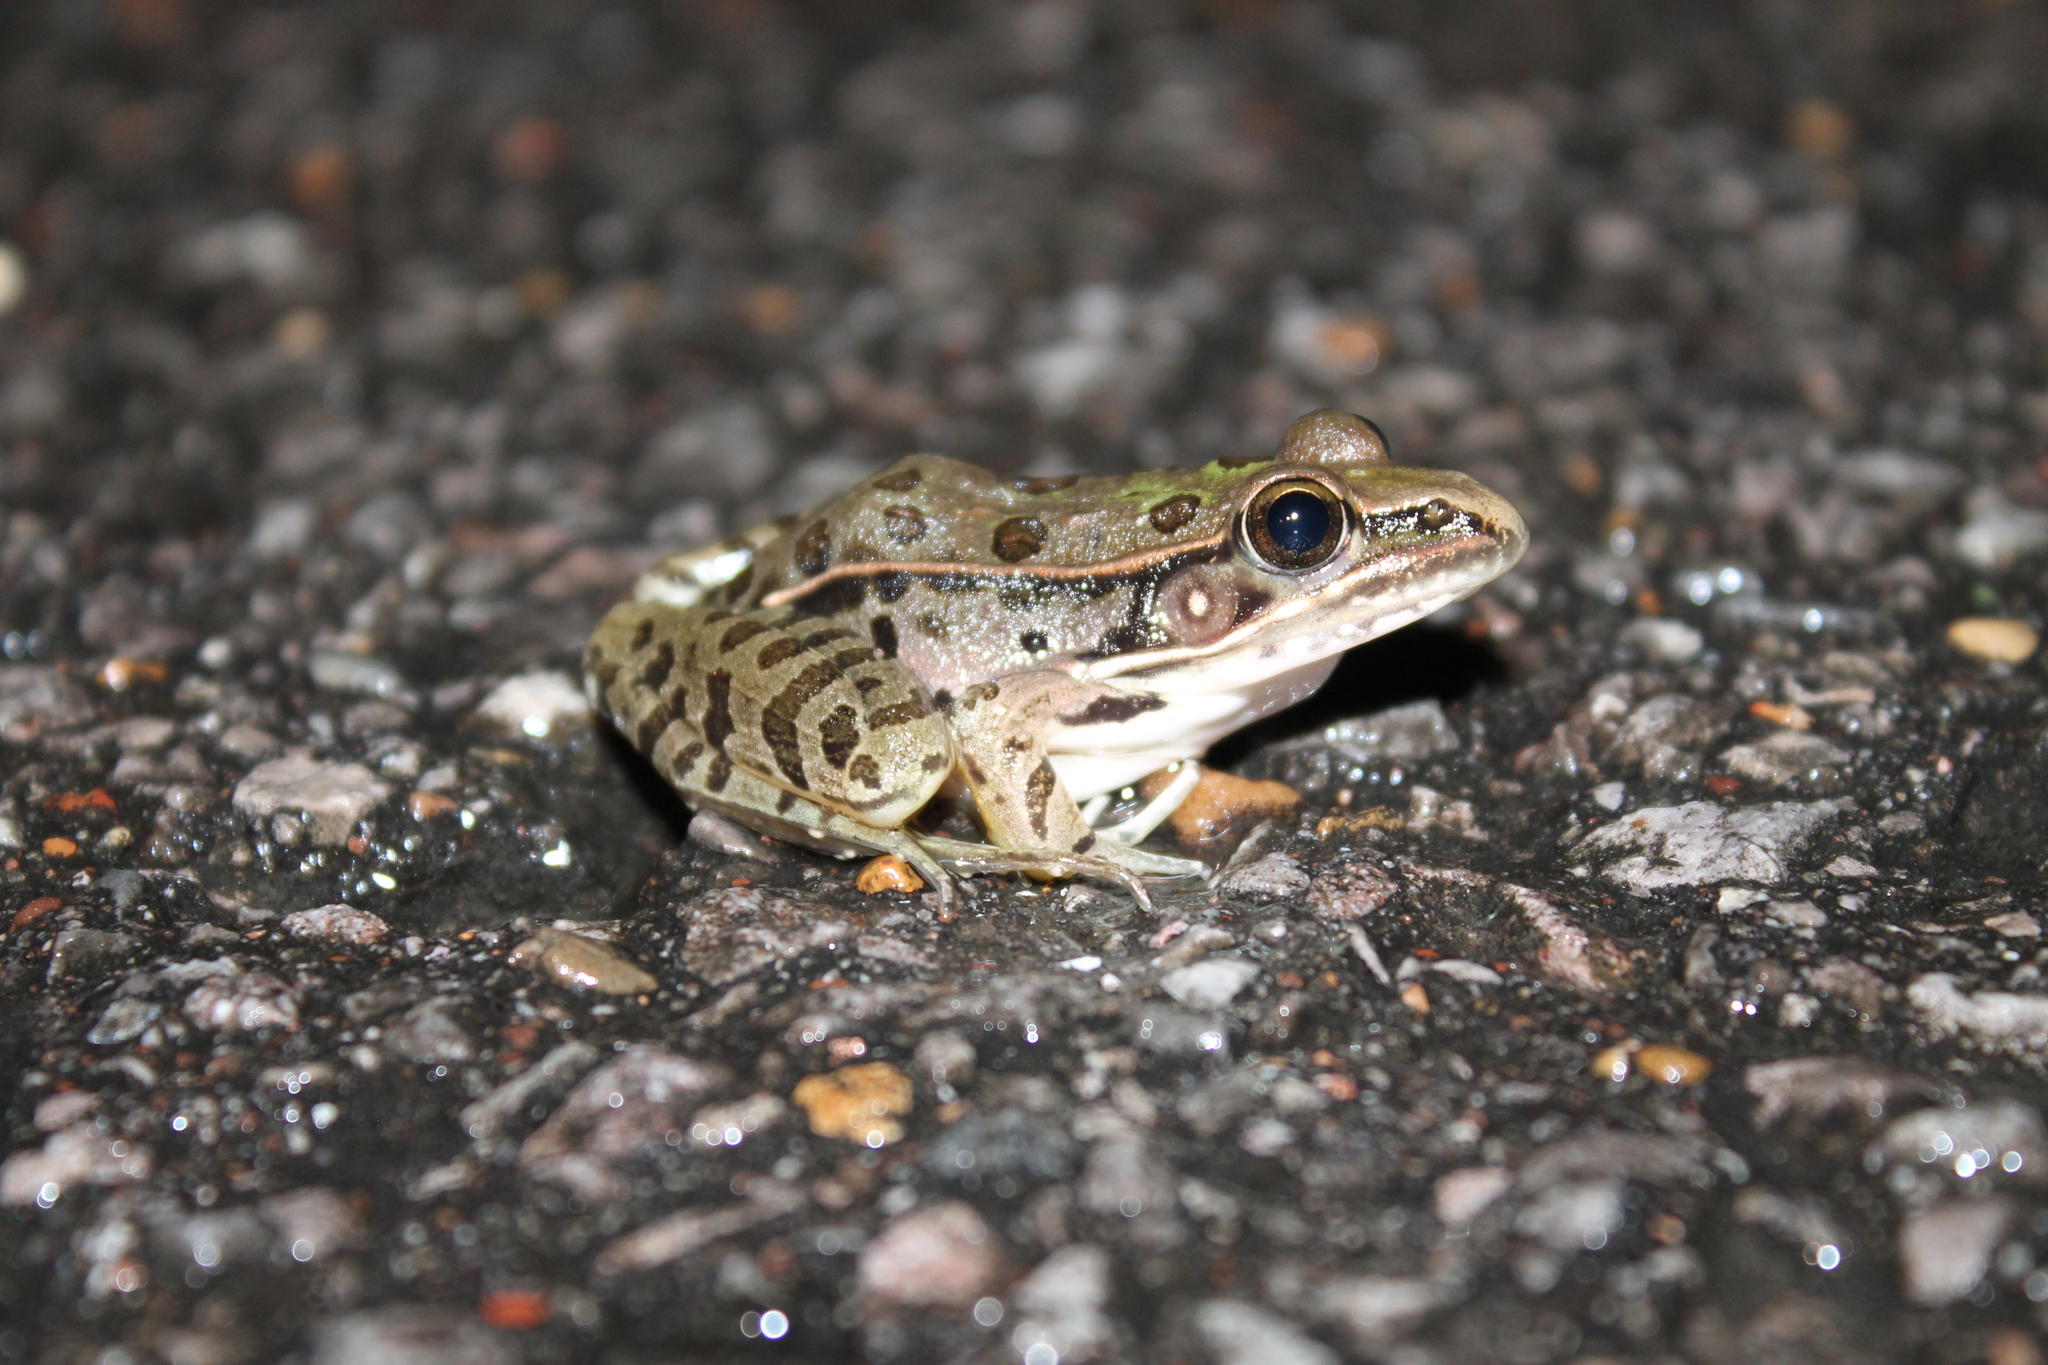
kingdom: Animalia
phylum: Chordata
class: Amphibia
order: Anura
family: Ranidae
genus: Lithobates
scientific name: Lithobates sphenocephalus
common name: Southern leopard frog
